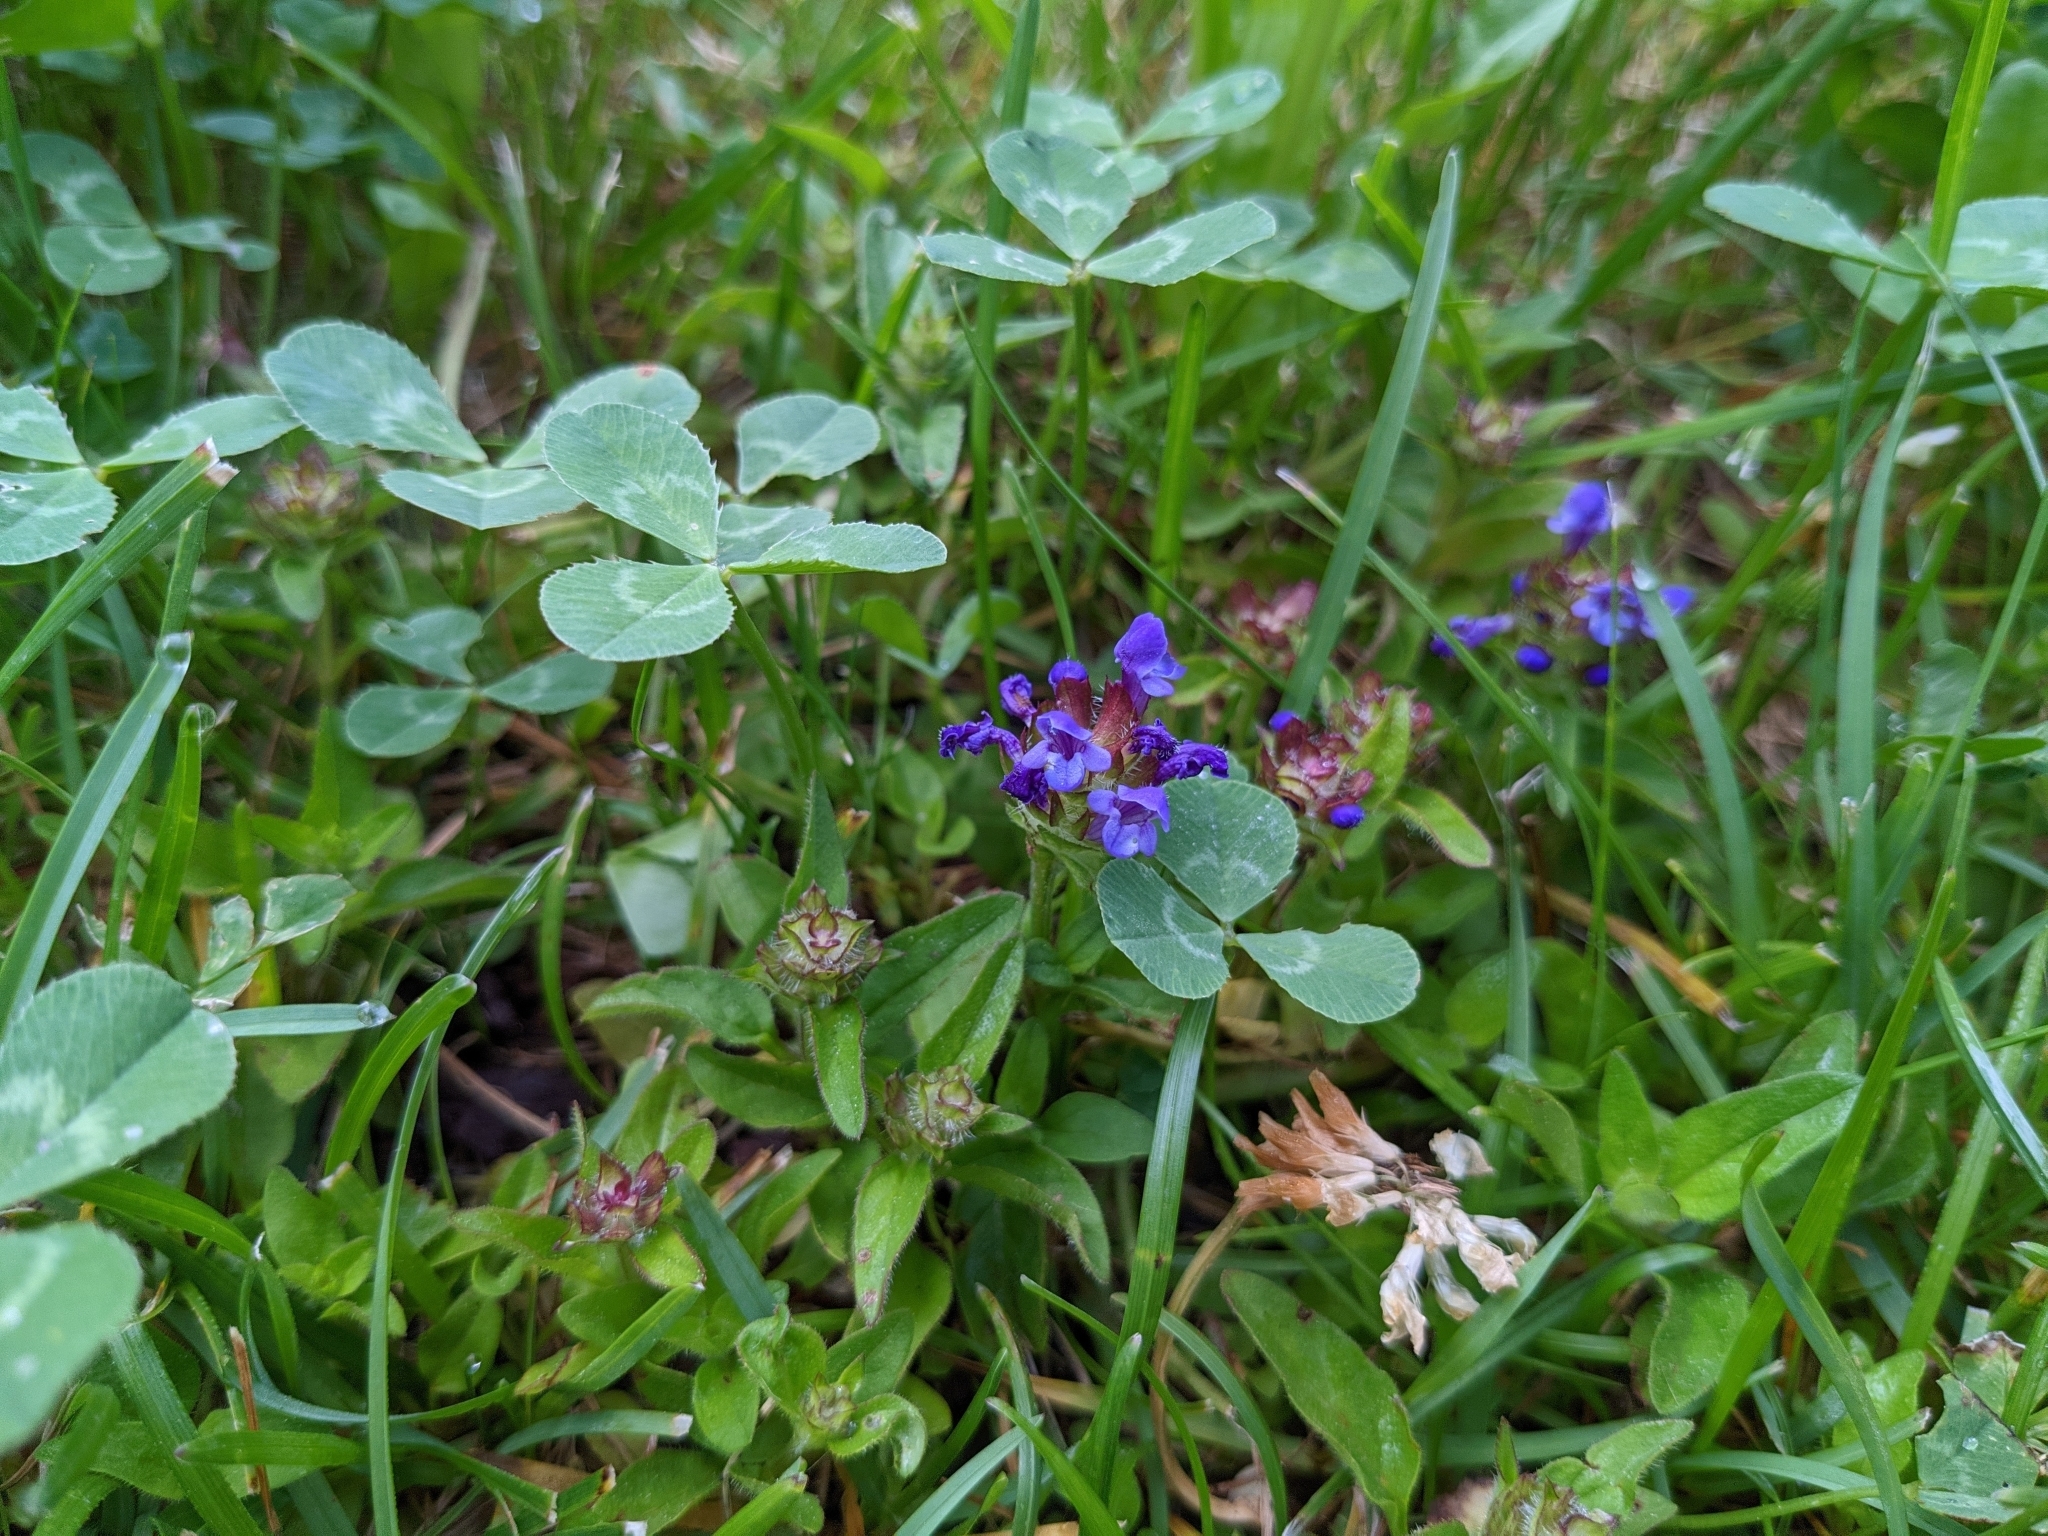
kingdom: Plantae
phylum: Tracheophyta
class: Magnoliopsida
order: Lamiales
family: Lamiaceae
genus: Prunella
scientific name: Prunella vulgaris
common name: Heal-all
